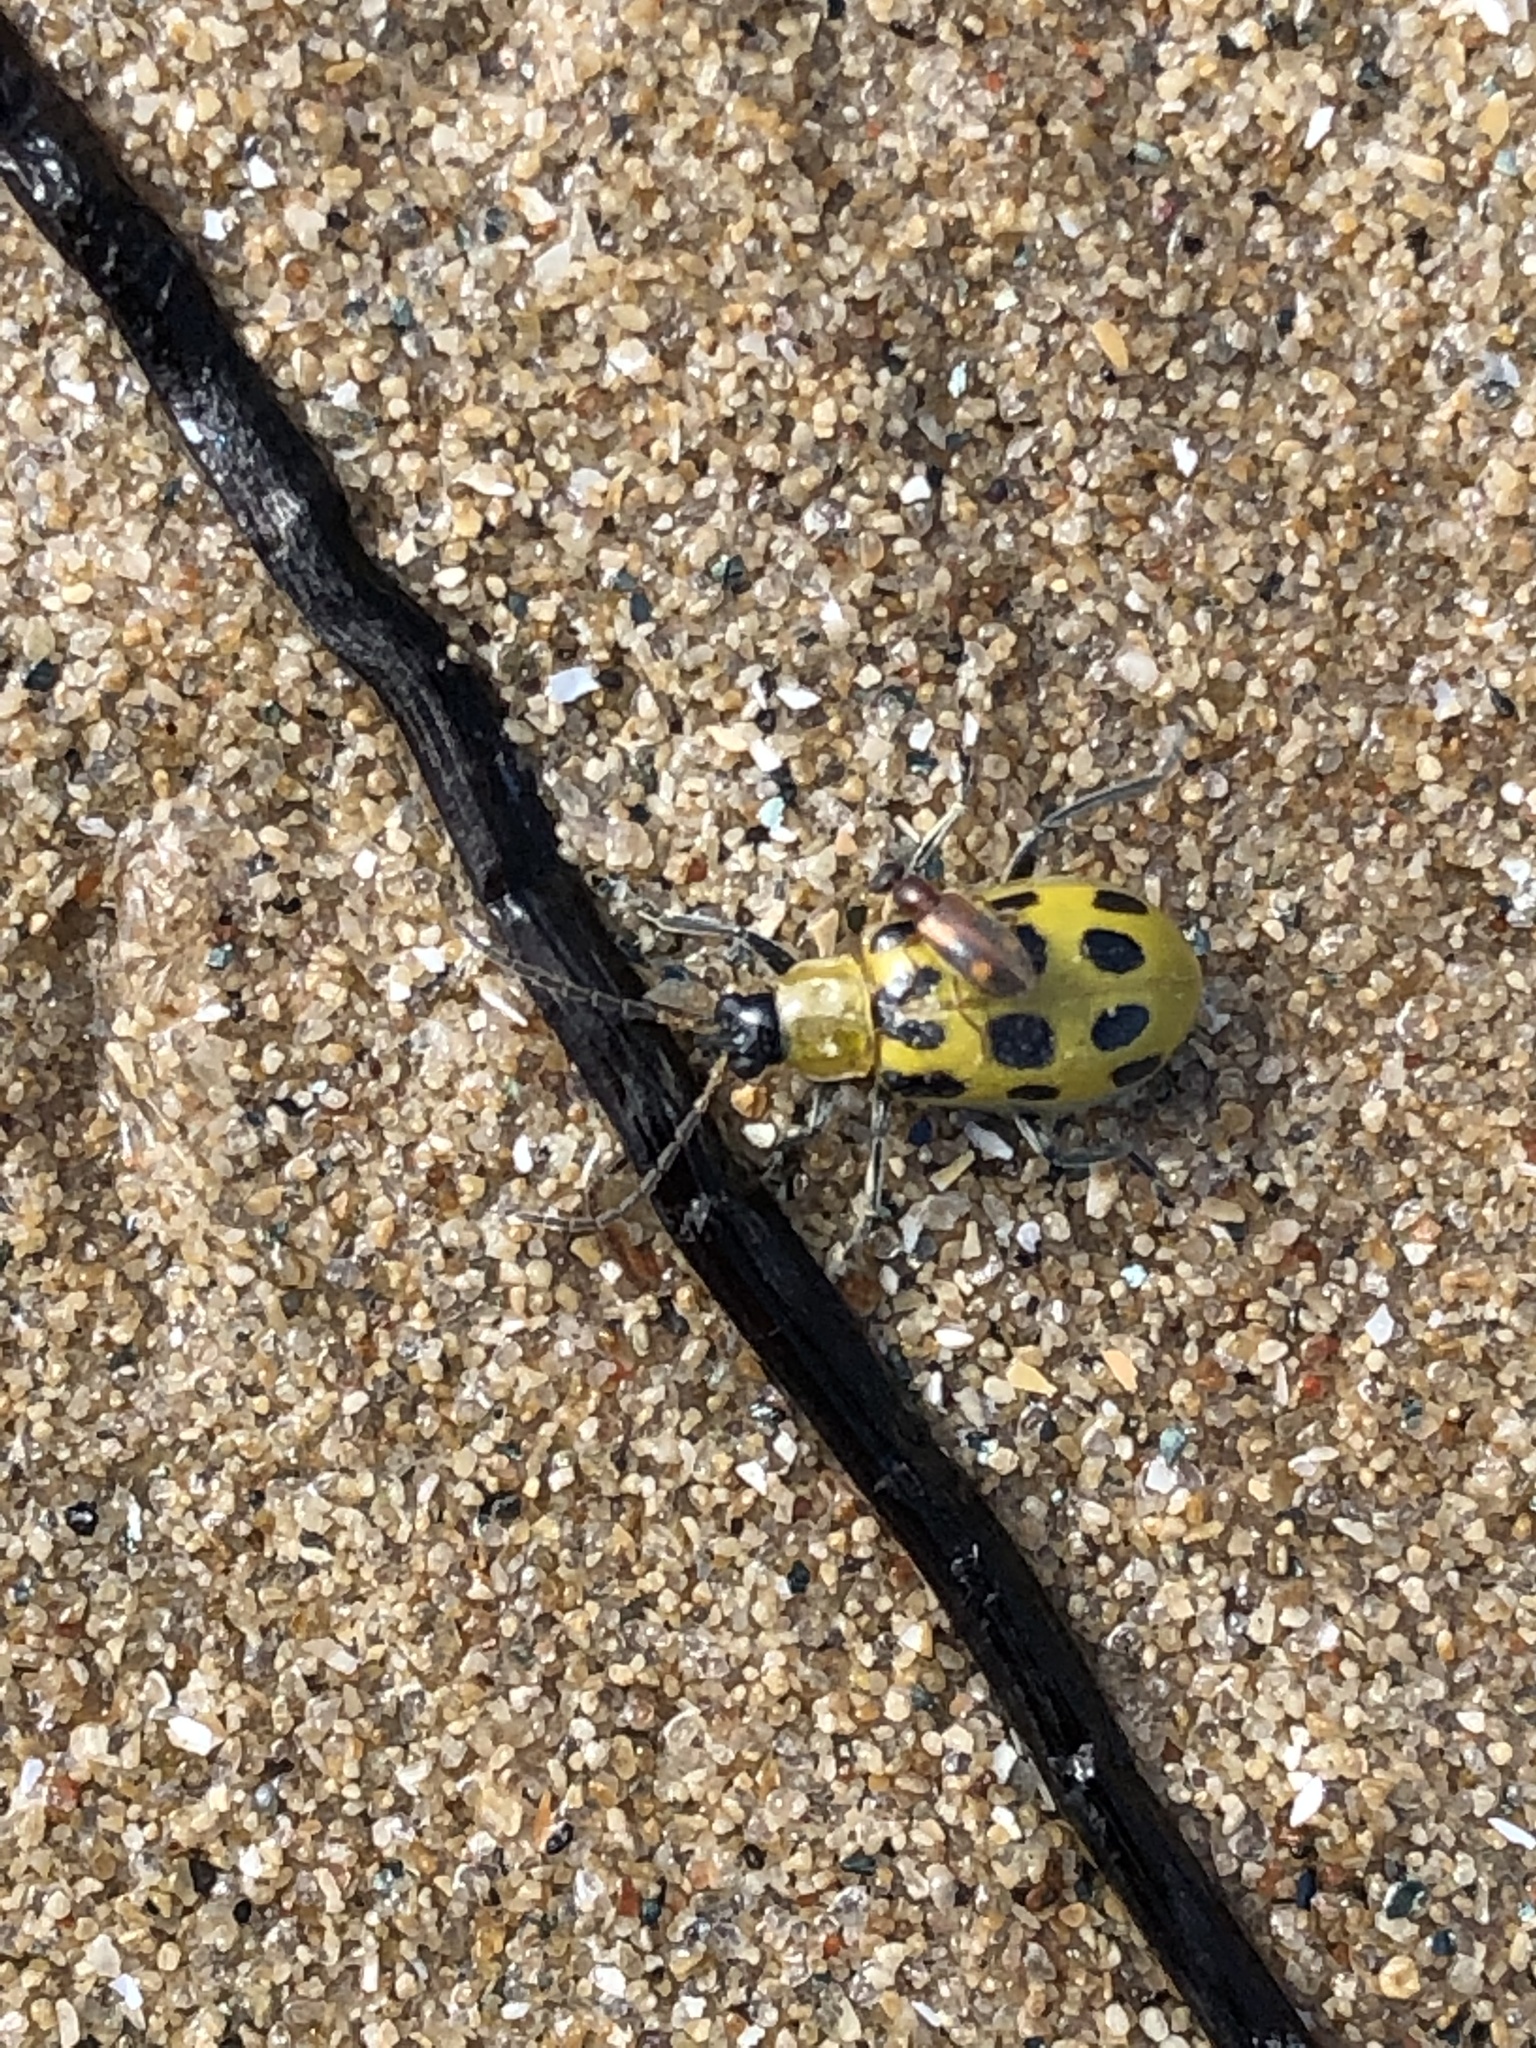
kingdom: Animalia
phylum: Arthropoda
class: Insecta
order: Coleoptera
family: Chrysomelidae
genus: Diabrotica
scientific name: Diabrotica undecimpunctata
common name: Spotted cucumber beetle
